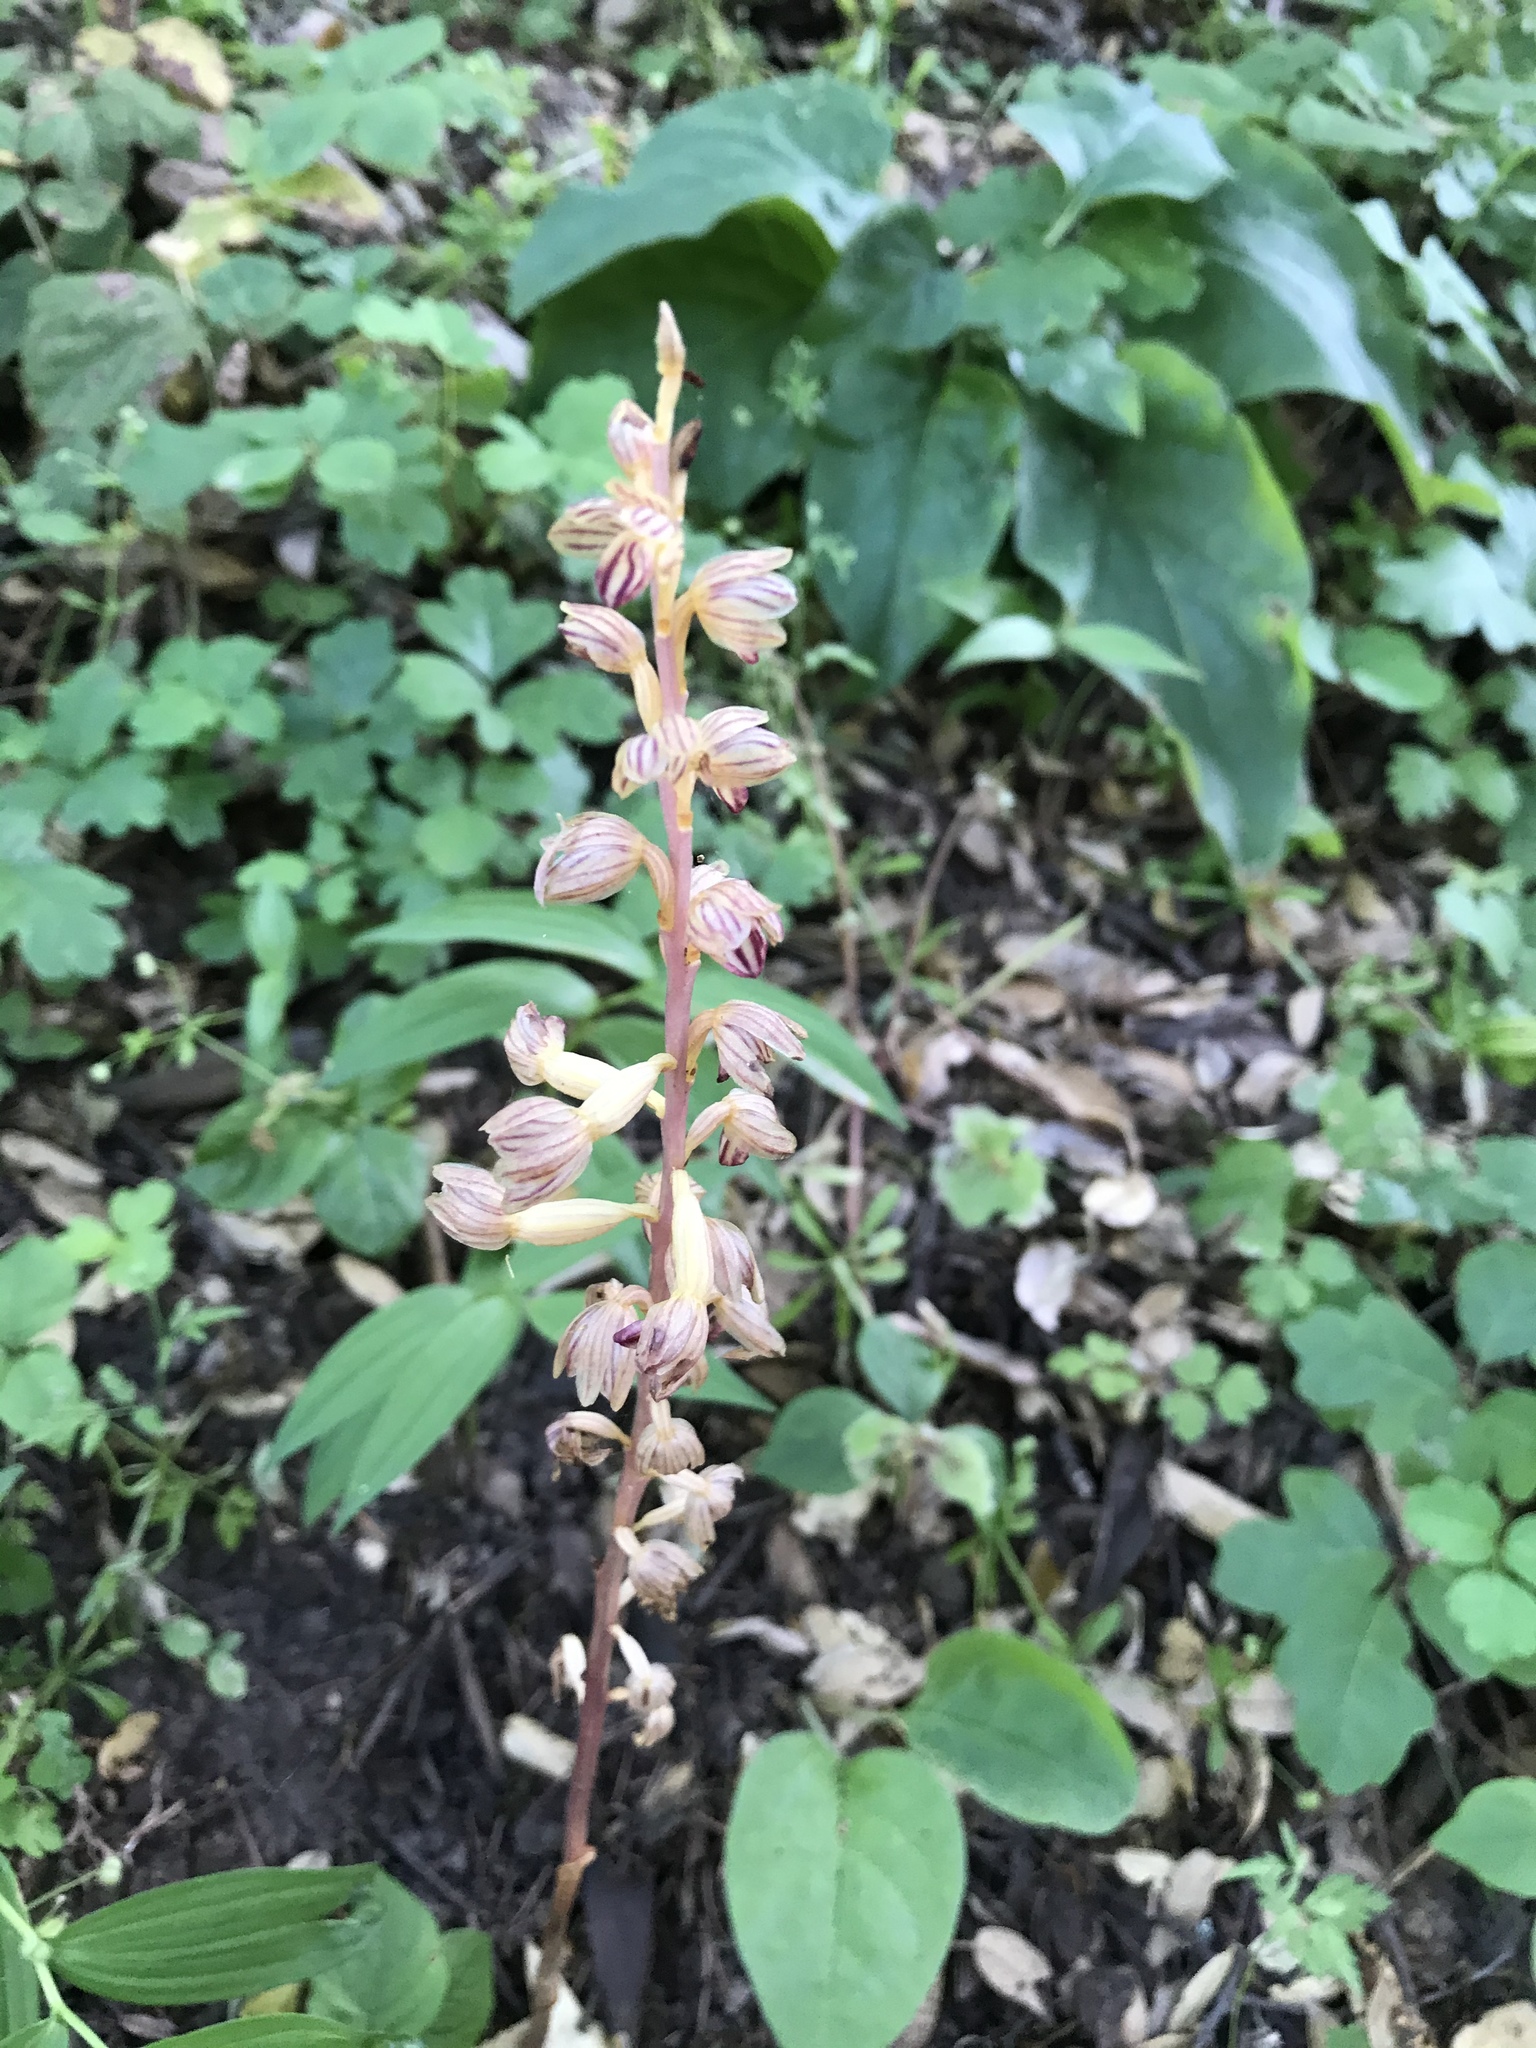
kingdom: Plantae
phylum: Tracheophyta
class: Liliopsida
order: Asparagales
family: Orchidaceae
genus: Corallorhiza
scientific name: Corallorhiza striata
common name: Hooded coralroot
